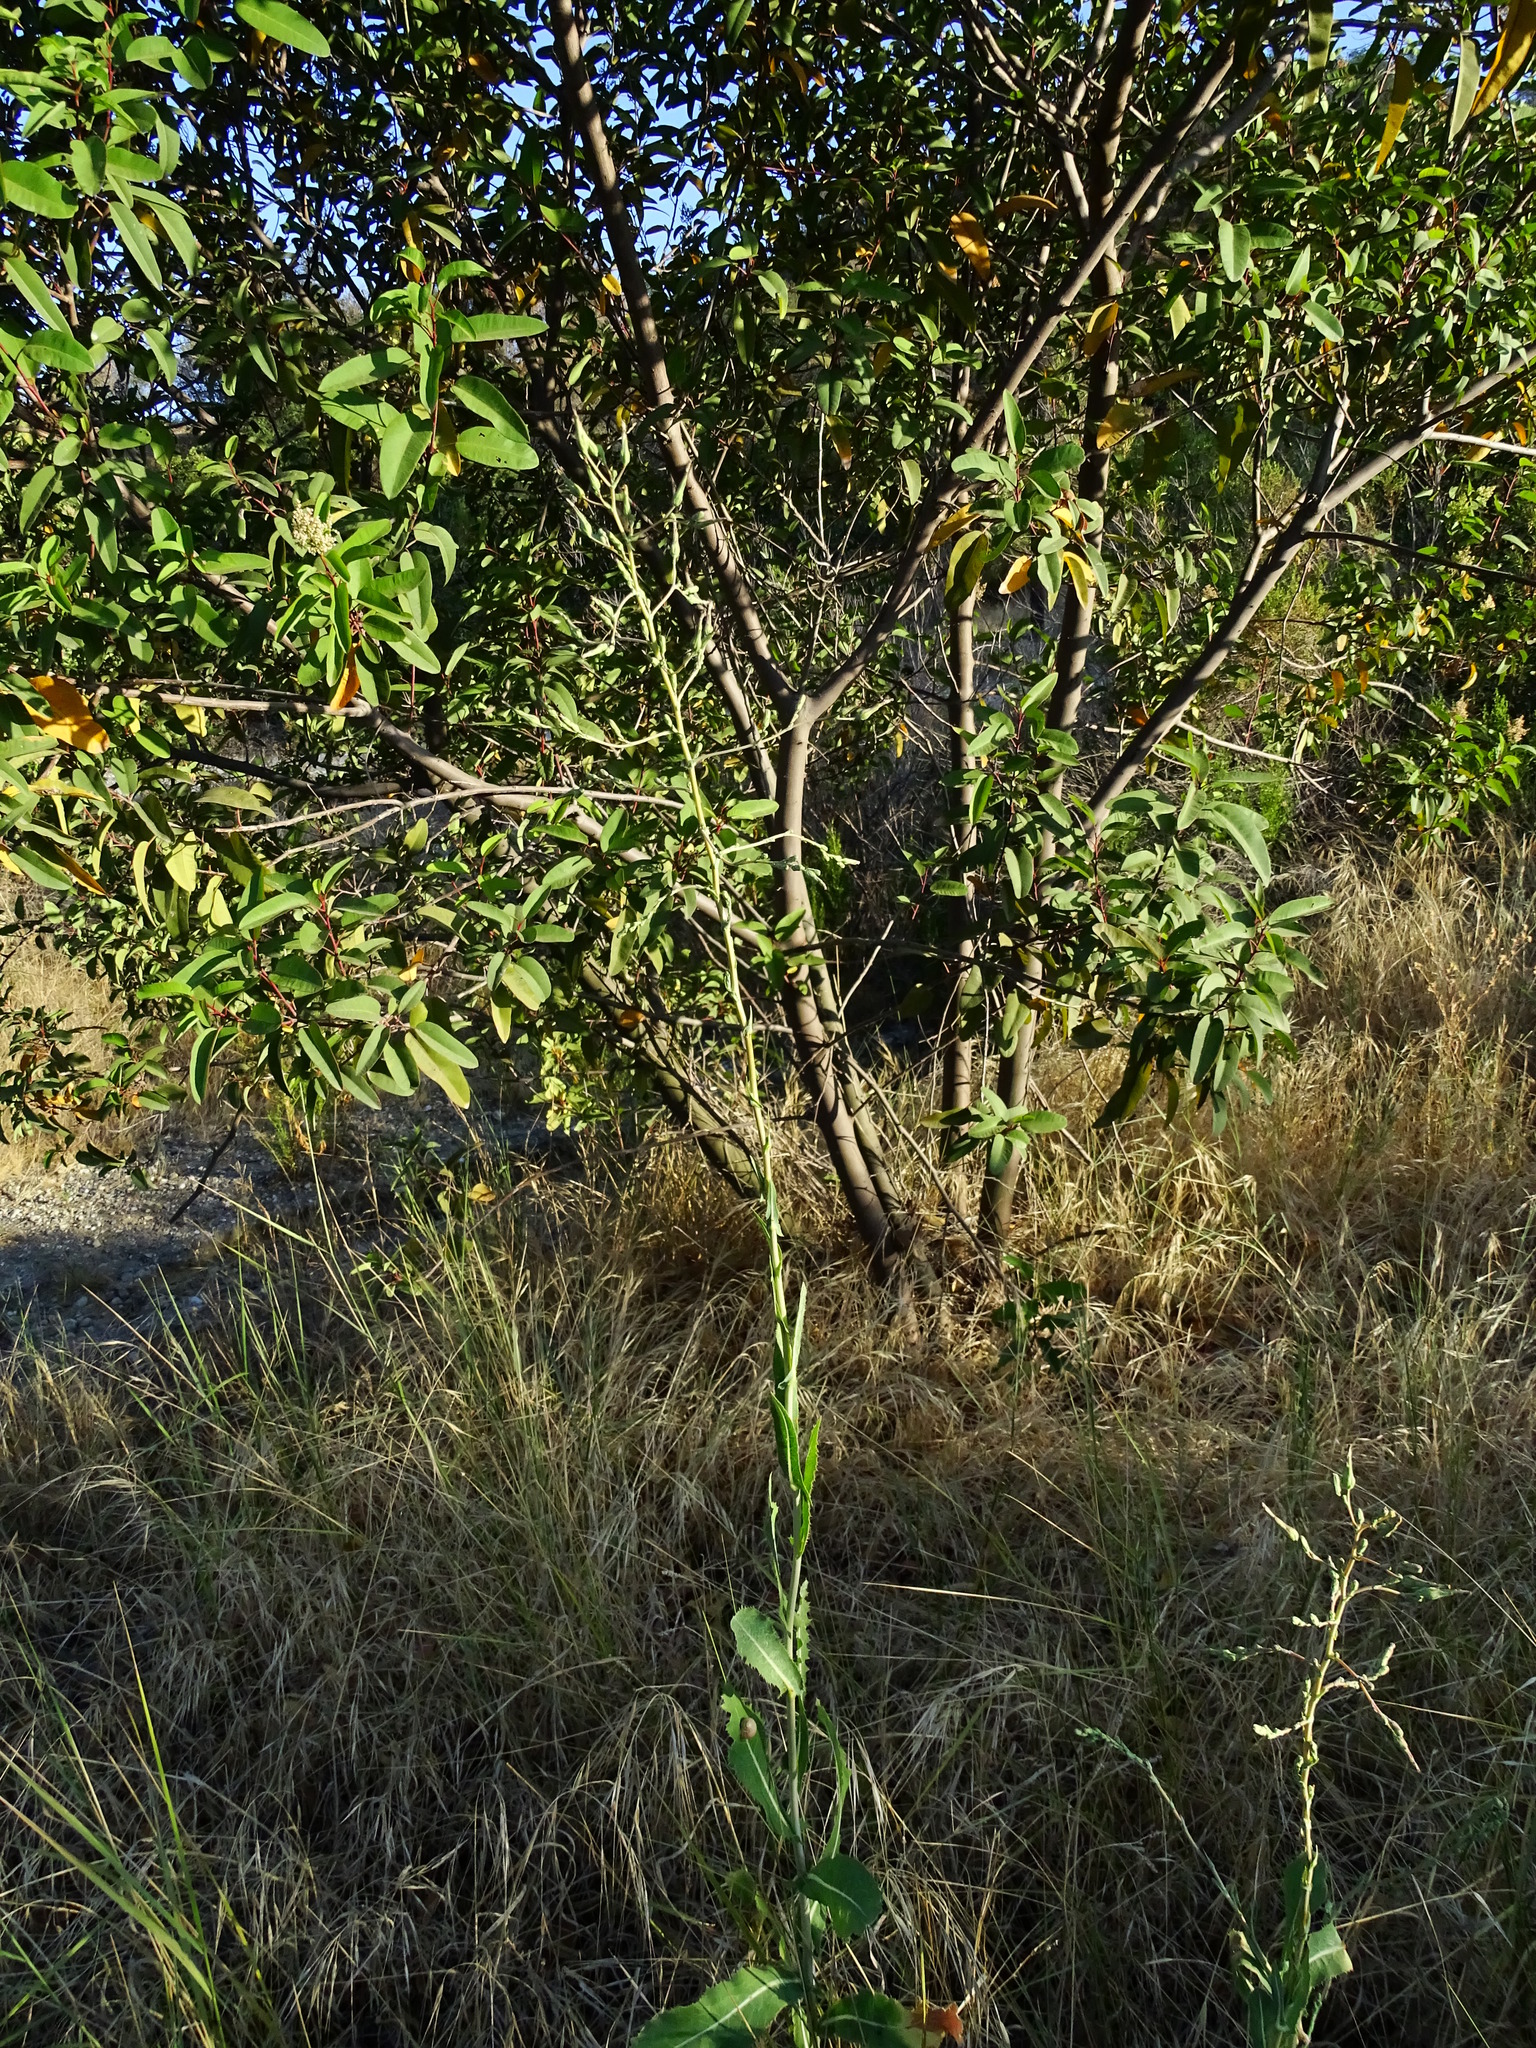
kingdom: Plantae
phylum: Tracheophyta
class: Magnoliopsida
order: Asterales
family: Asteraceae
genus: Lactuca
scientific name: Lactuca serriola
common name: Prickly lettuce
